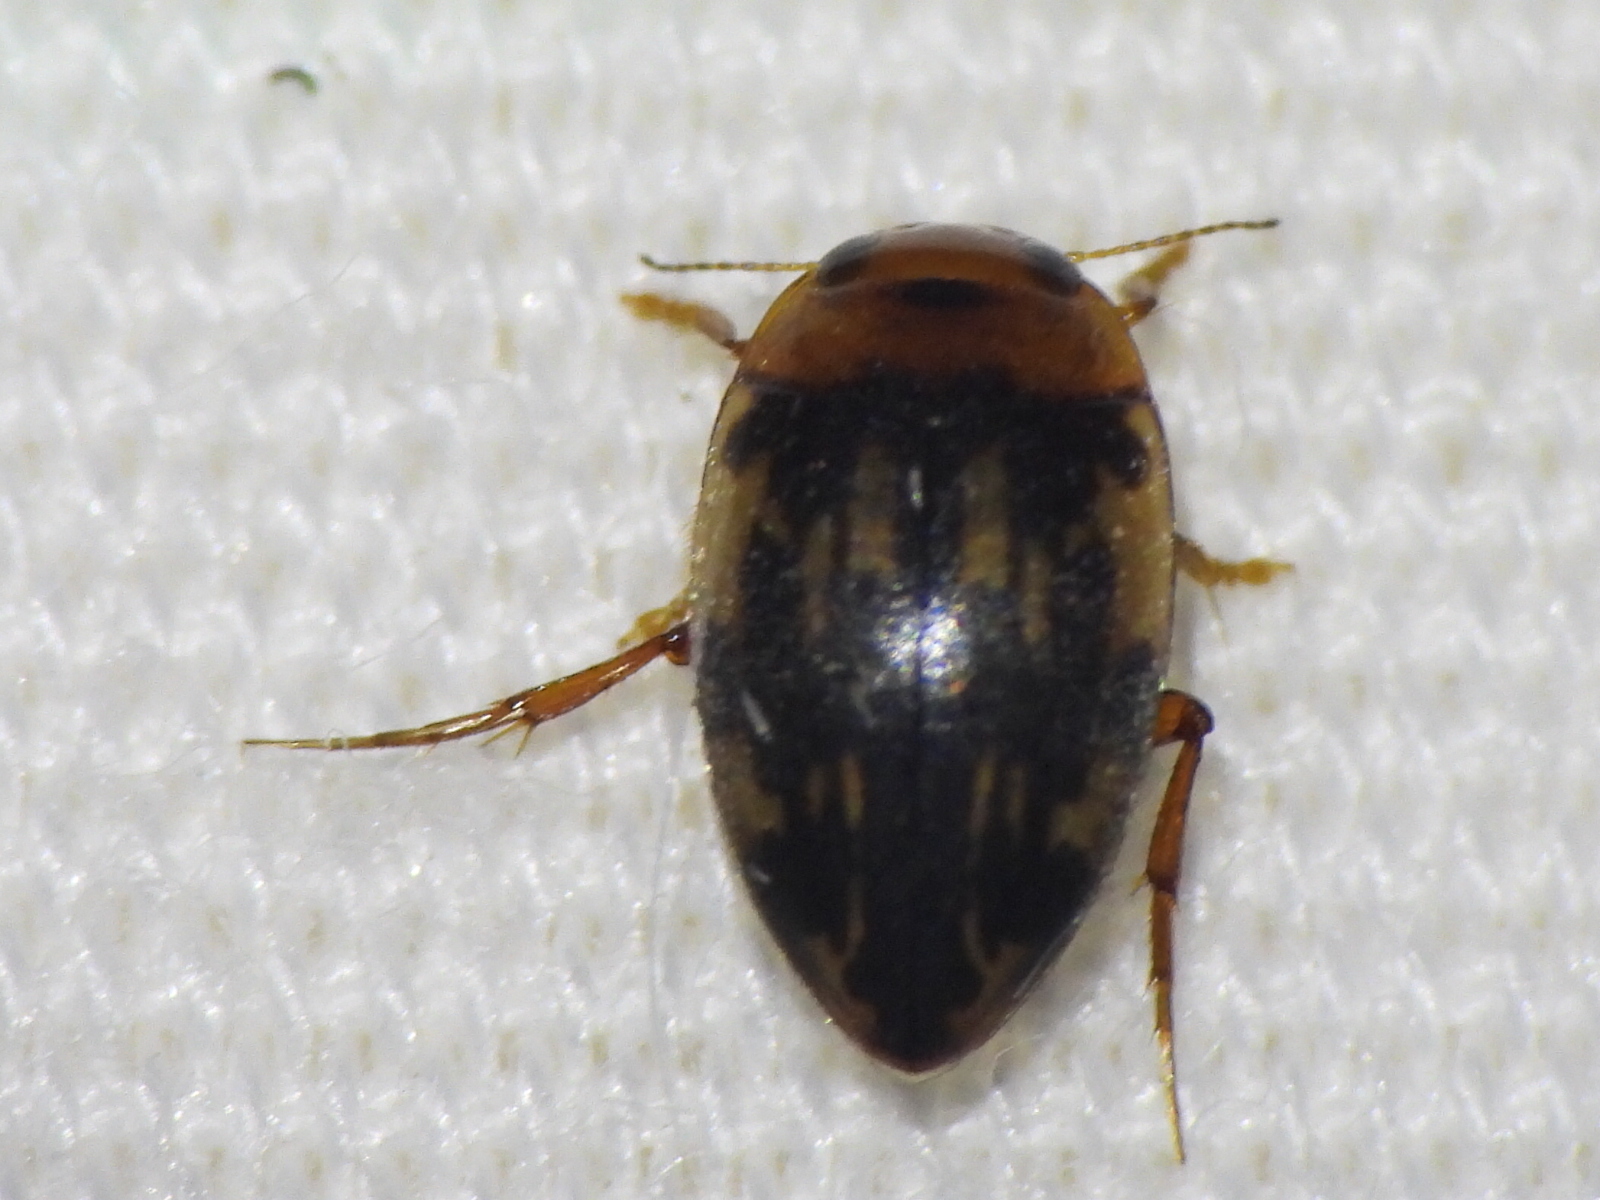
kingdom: Animalia
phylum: Arthropoda
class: Insecta
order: Coleoptera
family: Dytiscidae
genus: Neoporus
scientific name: Neoporus
